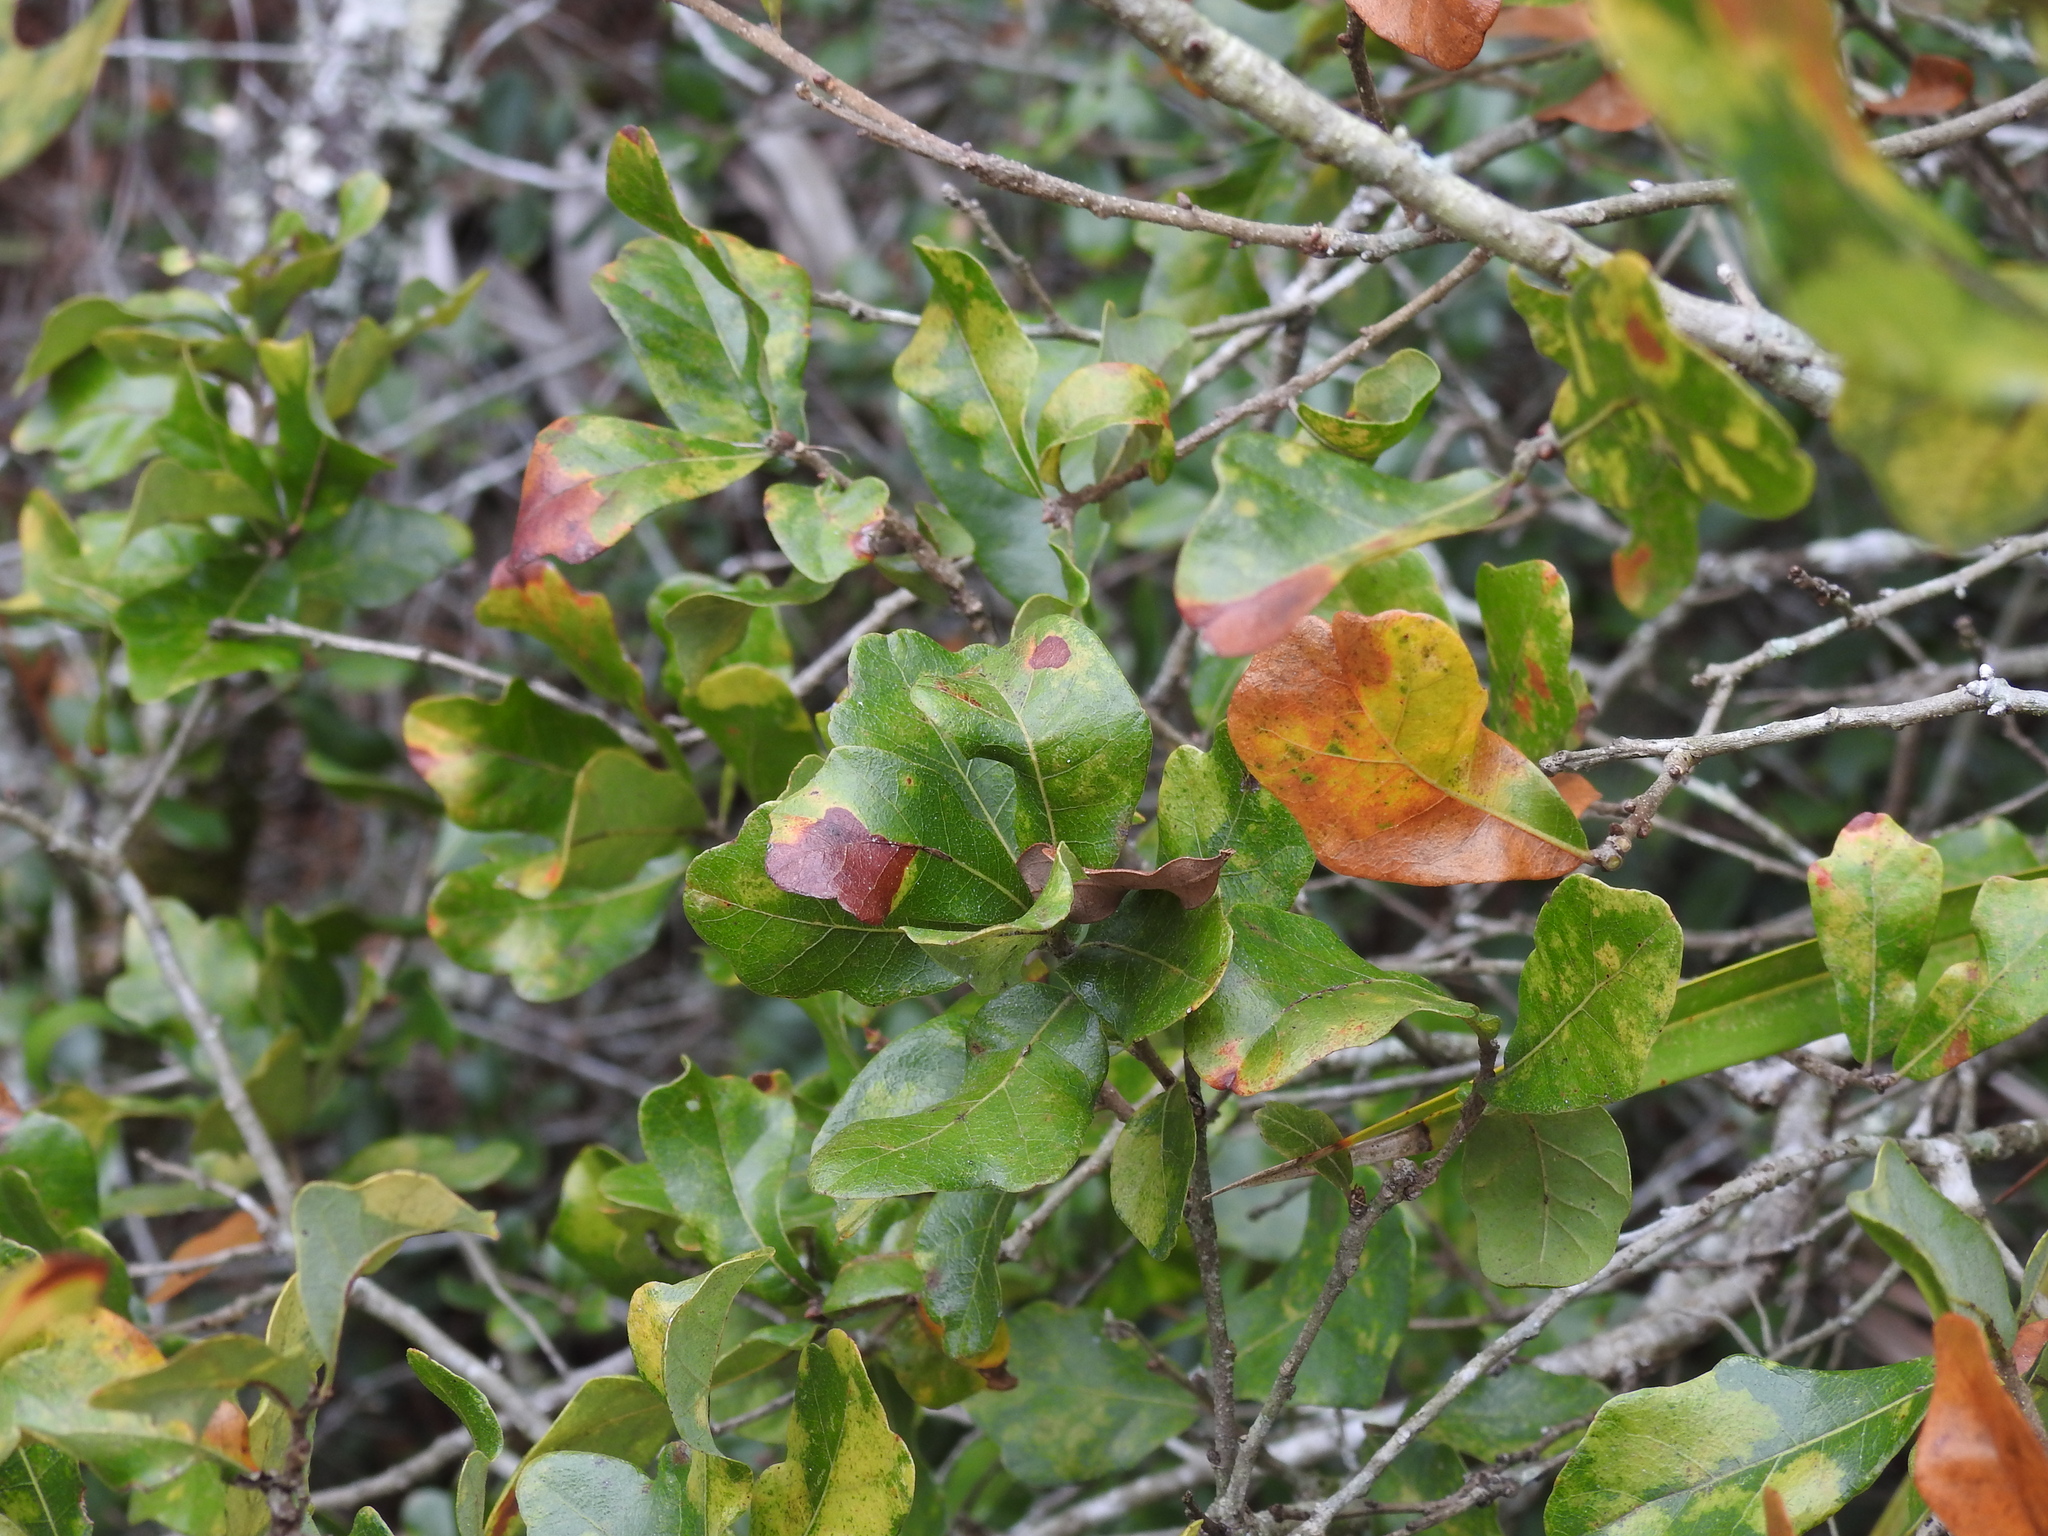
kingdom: Plantae
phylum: Tracheophyta
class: Magnoliopsida
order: Fagales
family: Fagaceae
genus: Quercus
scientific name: Quercus chapmanii
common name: Chapman oak
